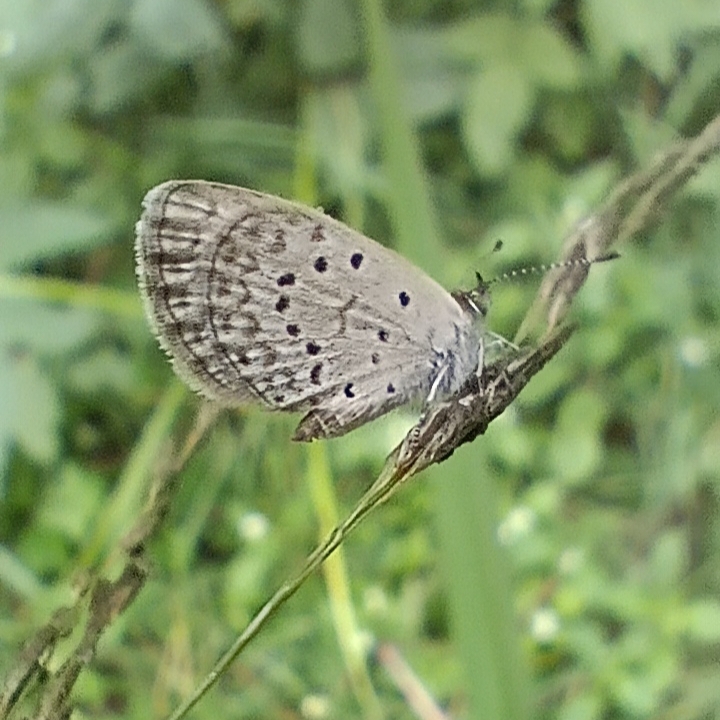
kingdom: Animalia
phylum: Arthropoda
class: Insecta
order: Lepidoptera
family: Lycaenidae
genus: Zizeeria
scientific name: Zizeeria knysna
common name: African grass blue
